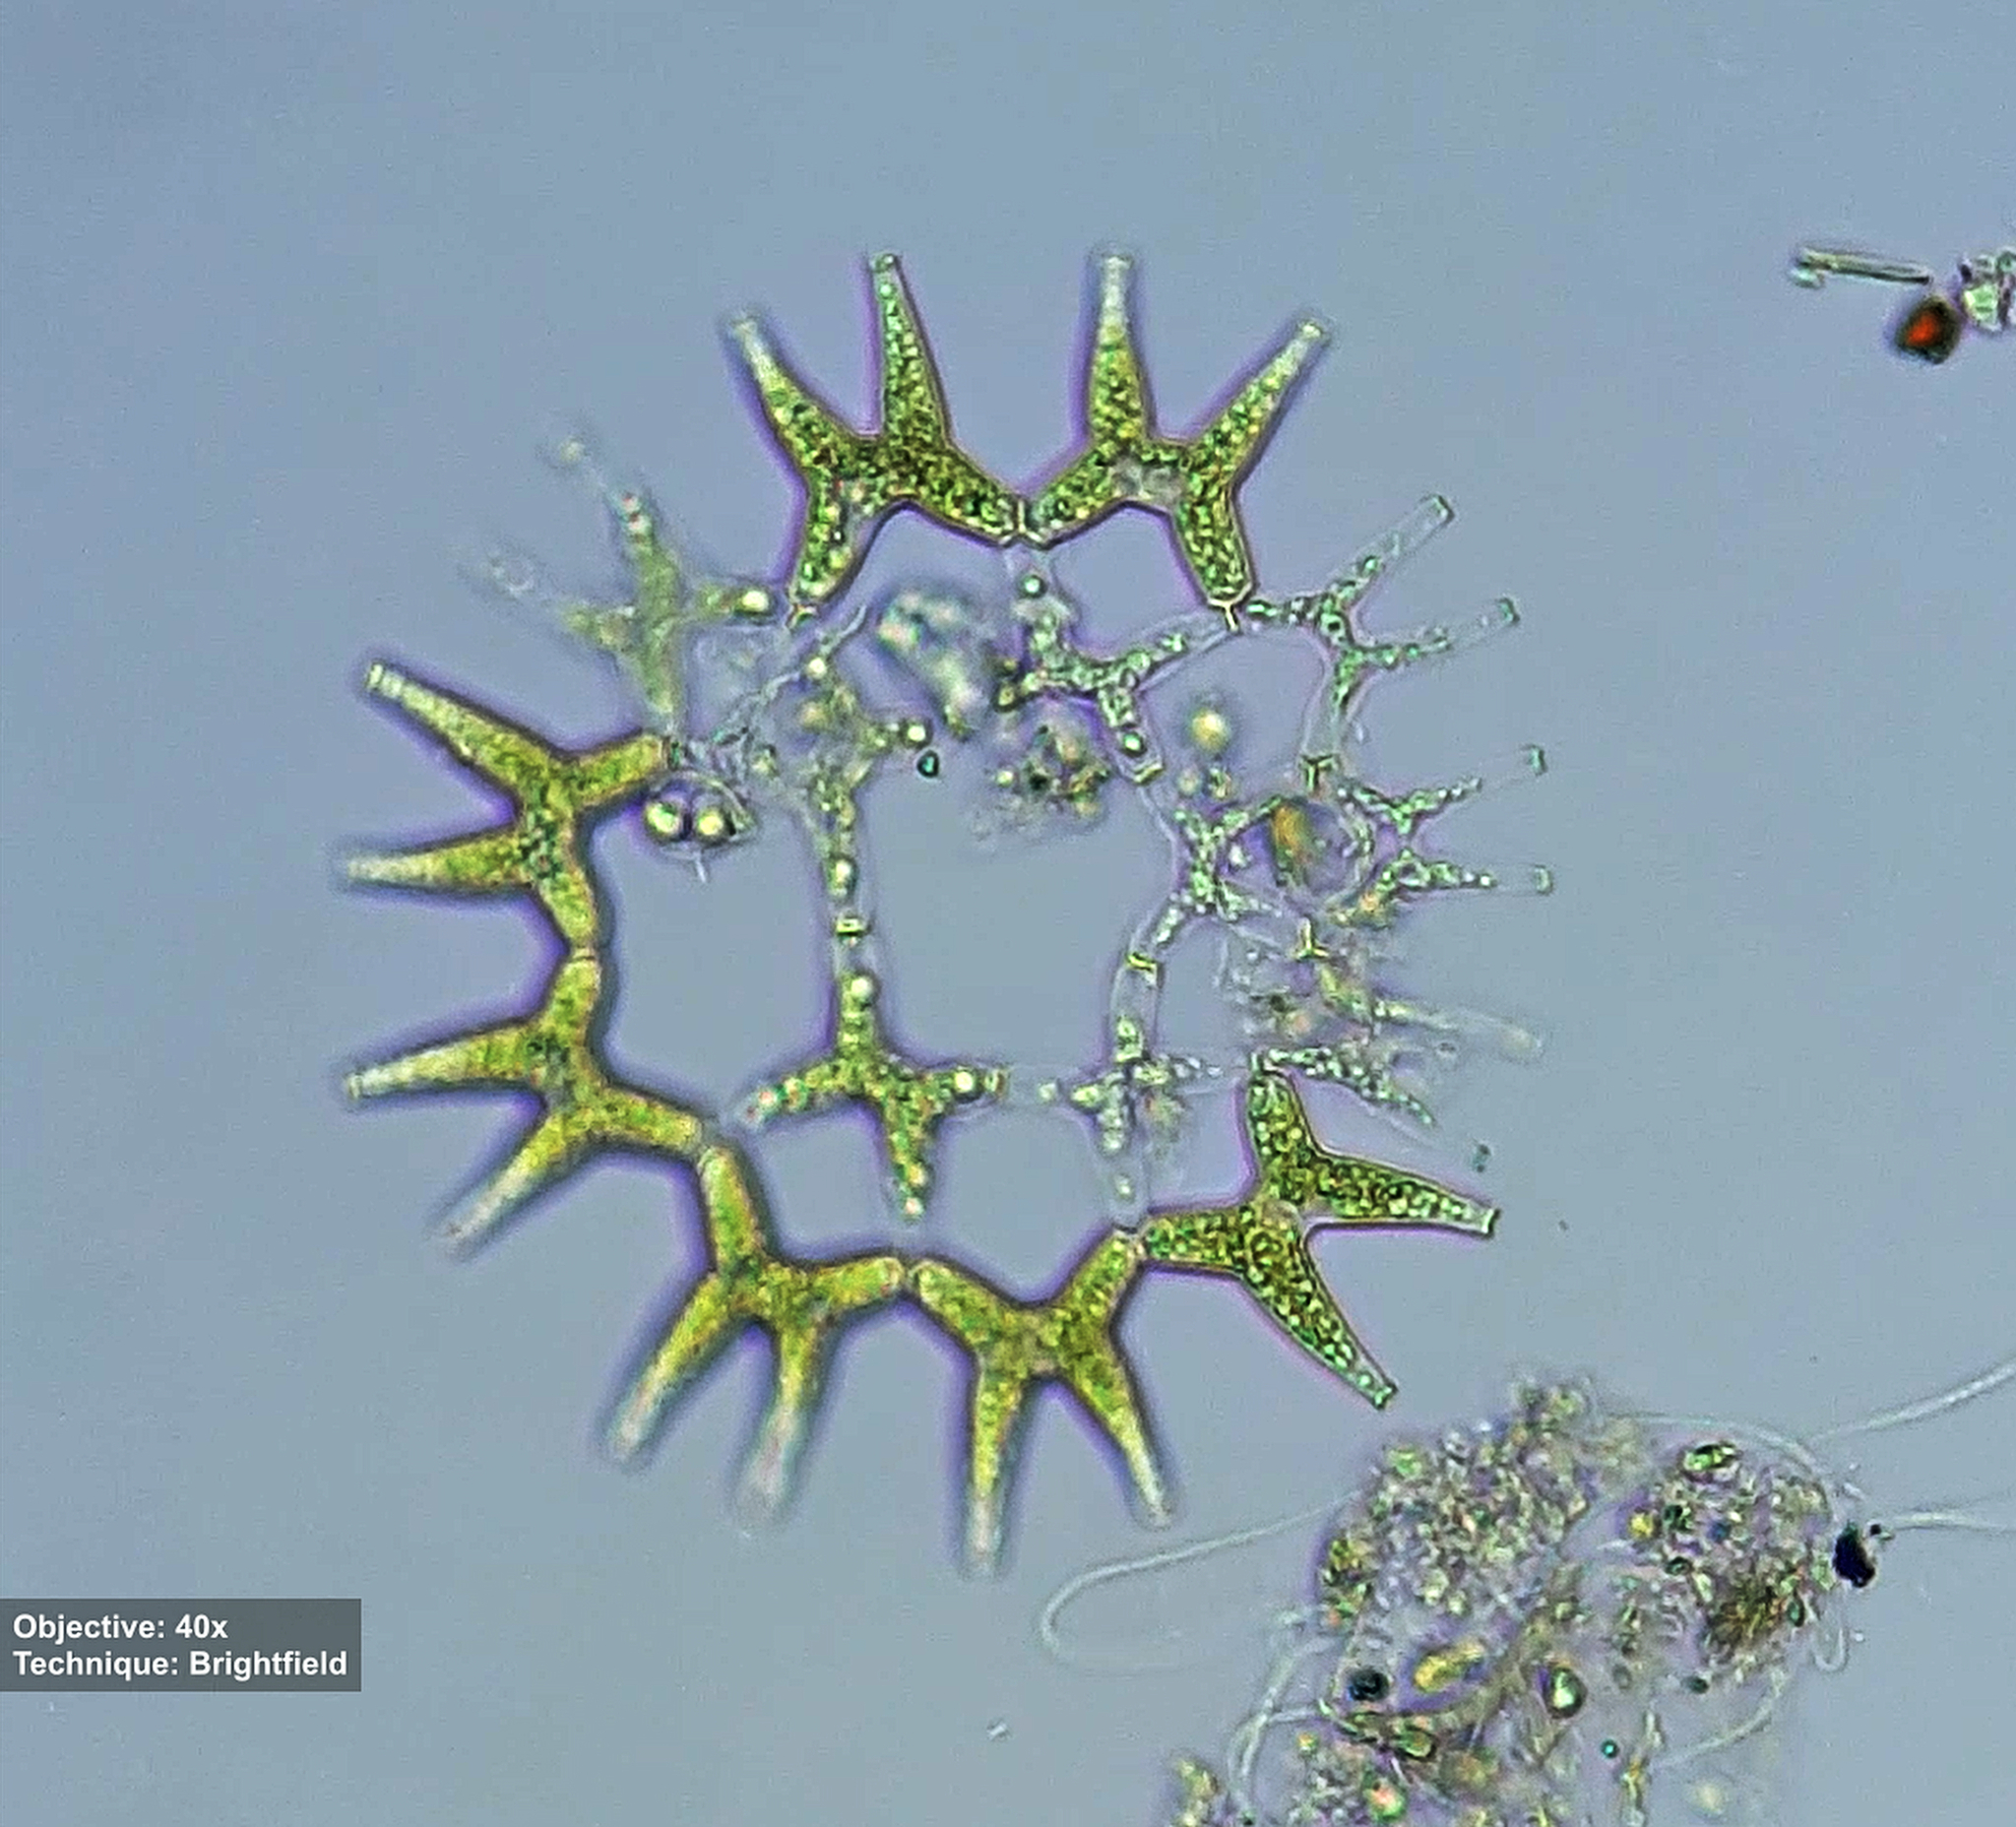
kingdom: Plantae
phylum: Chlorophyta
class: Chlorophyceae
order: Sphaeropleales
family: Hydrodictyaceae
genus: Lacunastrum
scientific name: Lacunastrum gracillimum
